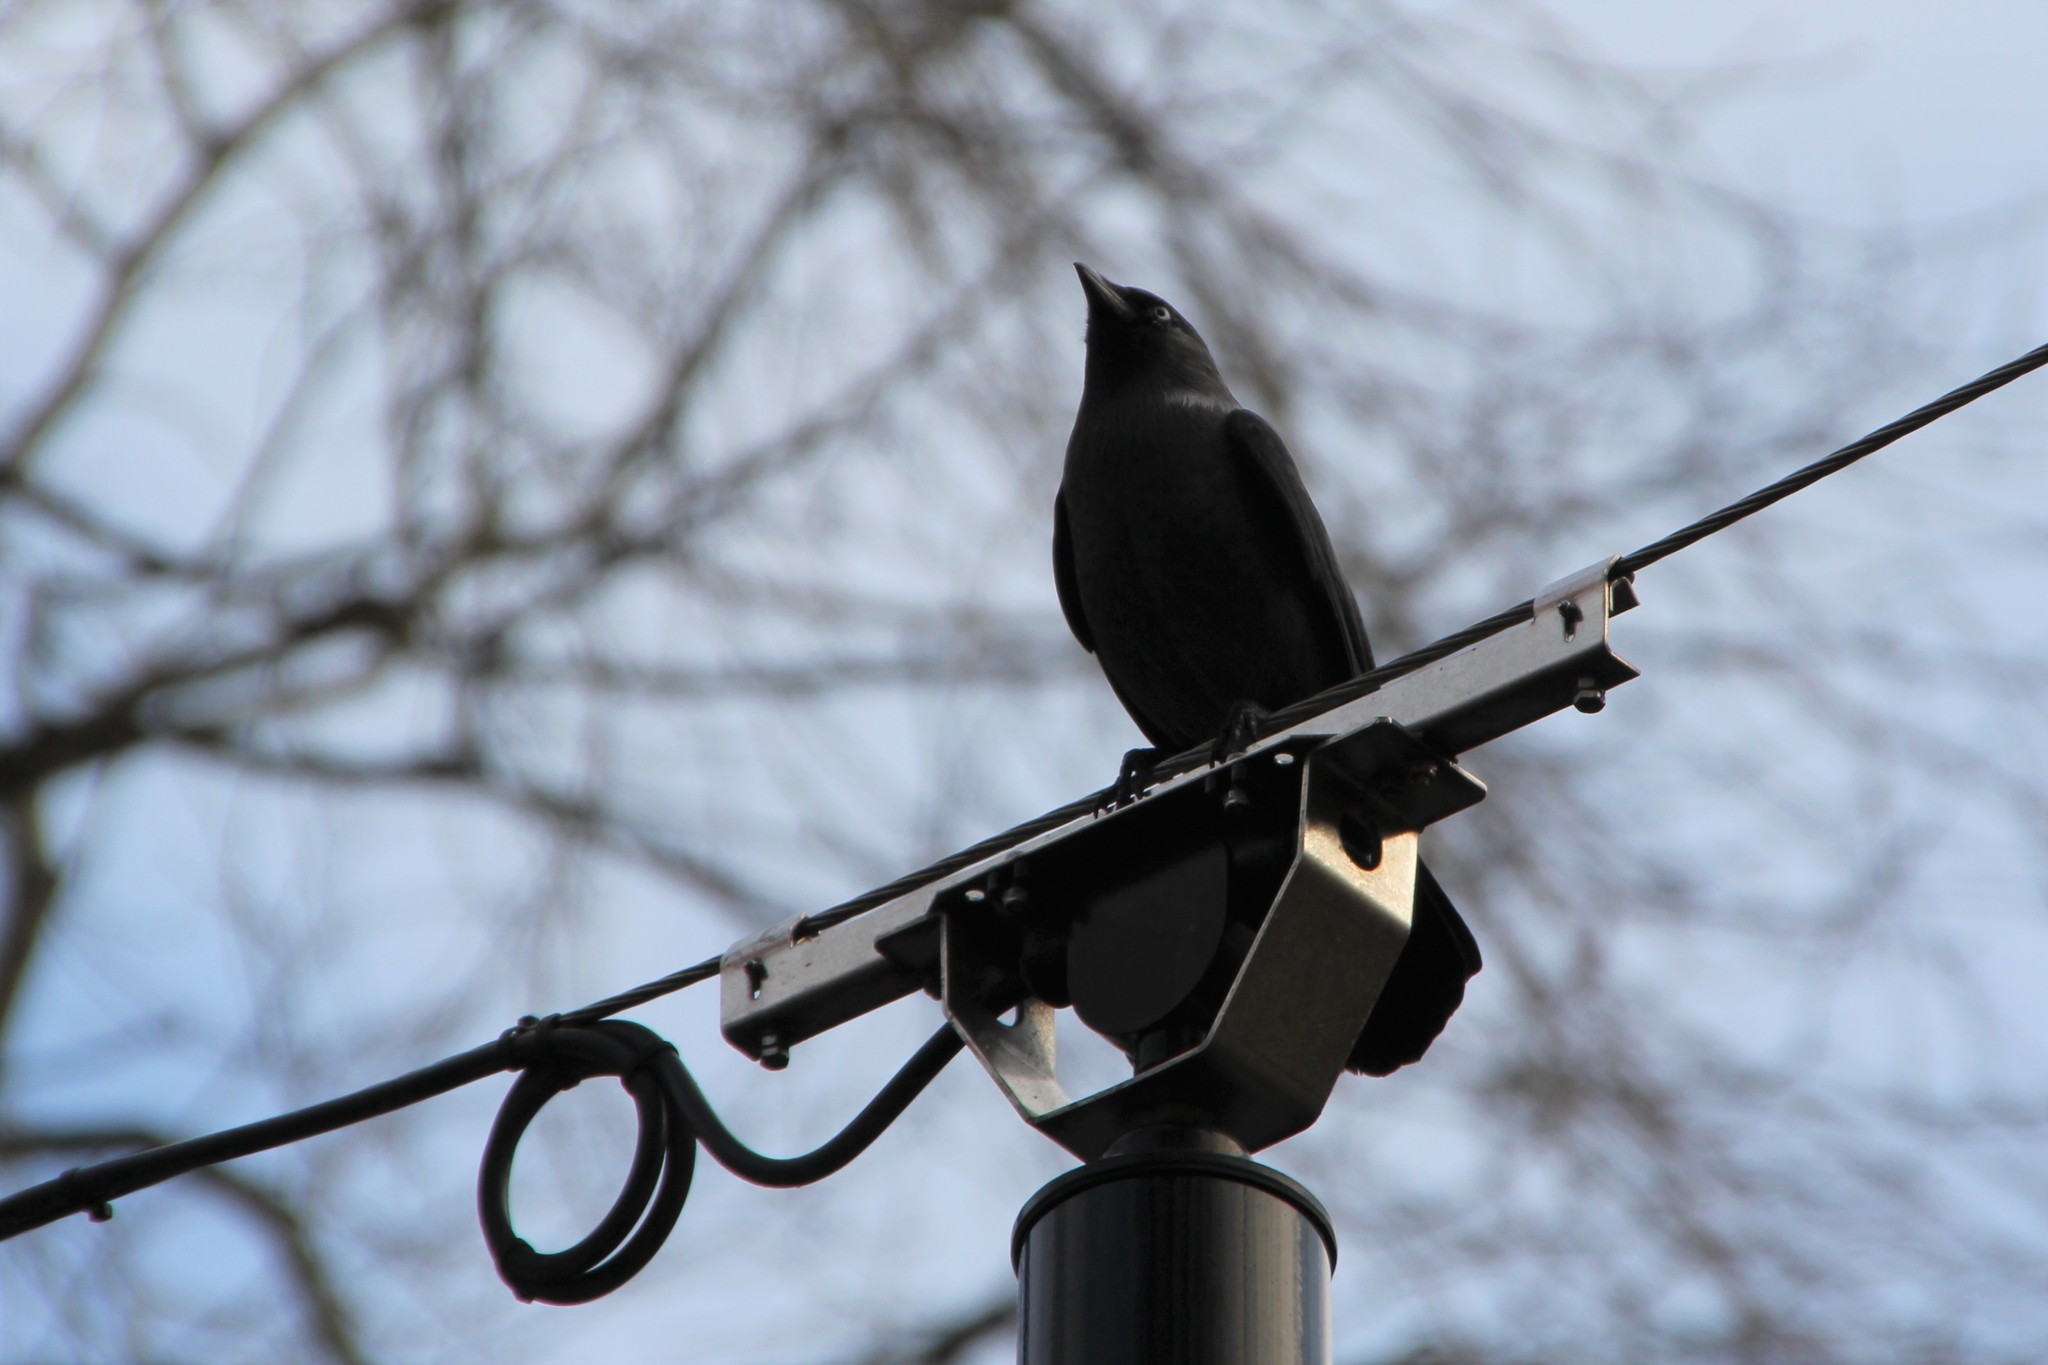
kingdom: Animalia
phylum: Chordata
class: Aves
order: Passeriformes
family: Corvidae
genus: Coloeus
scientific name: Coloeus monedula
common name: Western jackdaw
